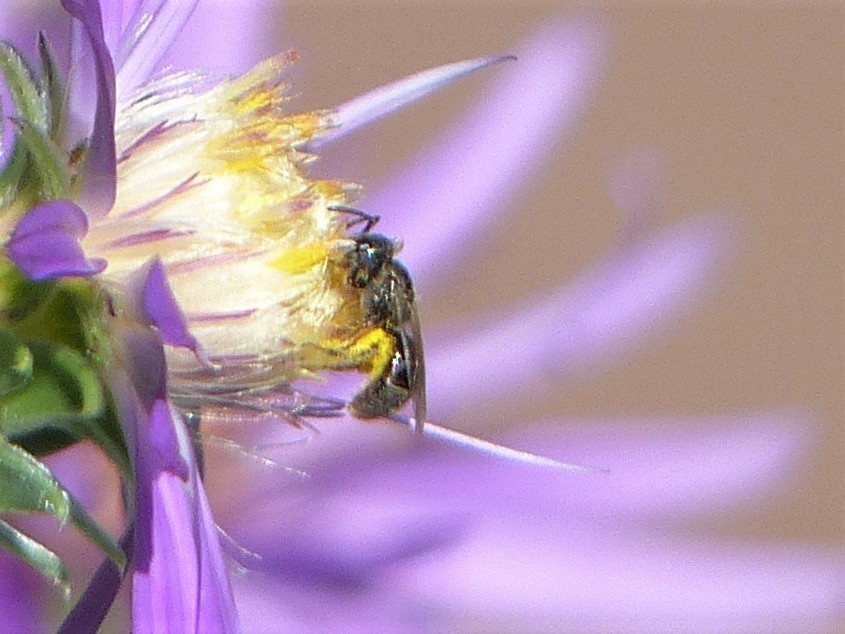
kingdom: Animalia
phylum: Arthropoda
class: Insecta
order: Hymenoptera
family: Halictidae
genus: Dialictus
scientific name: Dialictus
